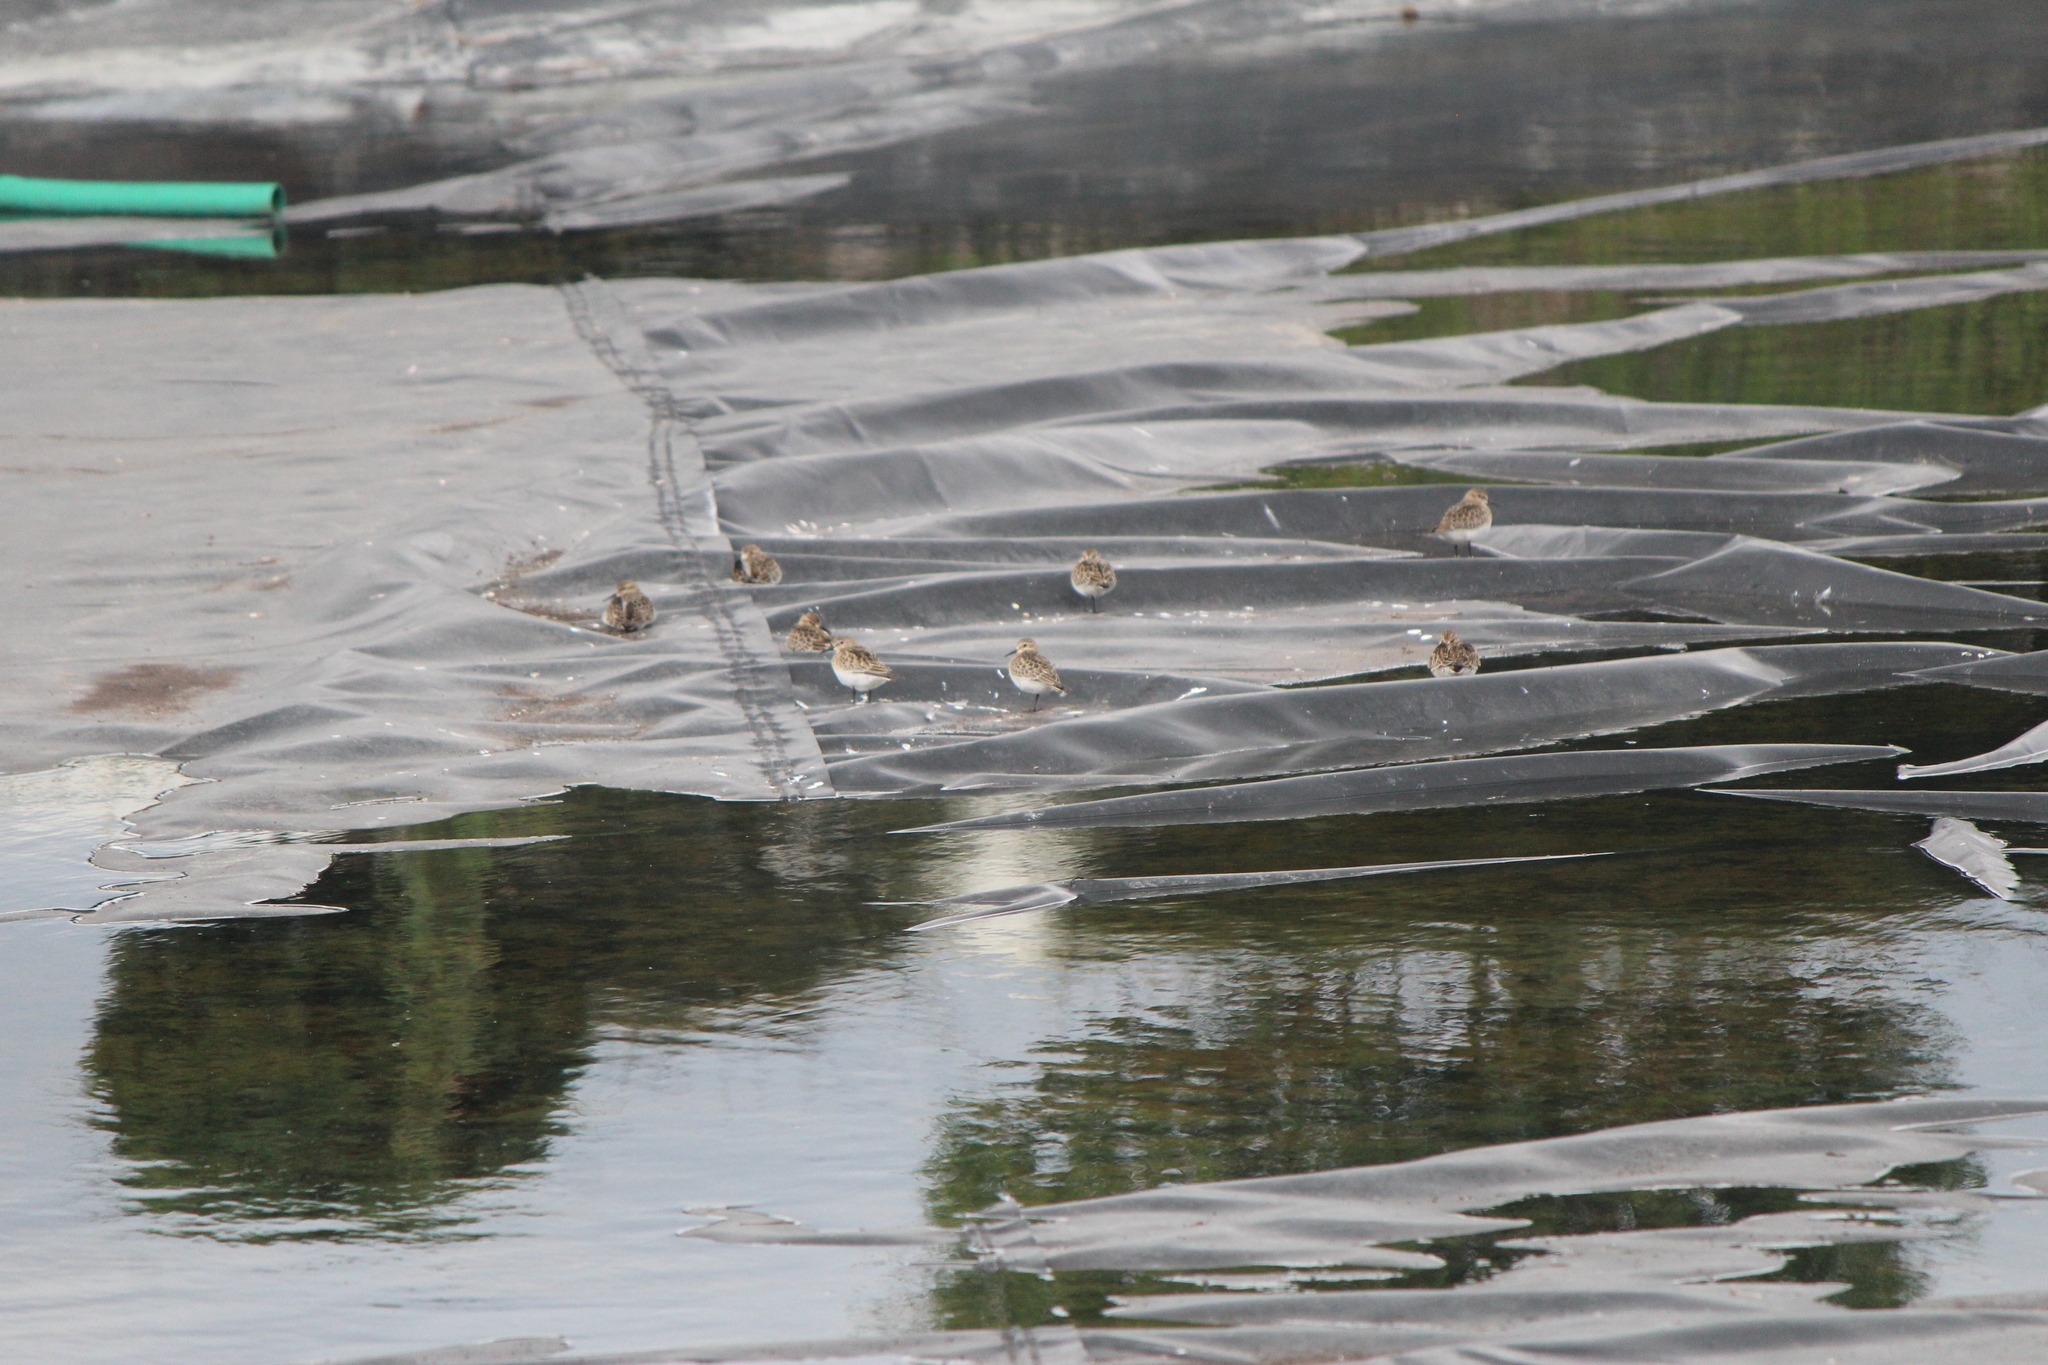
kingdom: Animalia
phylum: Chordata
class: Aves
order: Charadriiformes
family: Scolopacidae
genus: Calidris
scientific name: Calidris bairdii
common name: Baird's sandpiper
